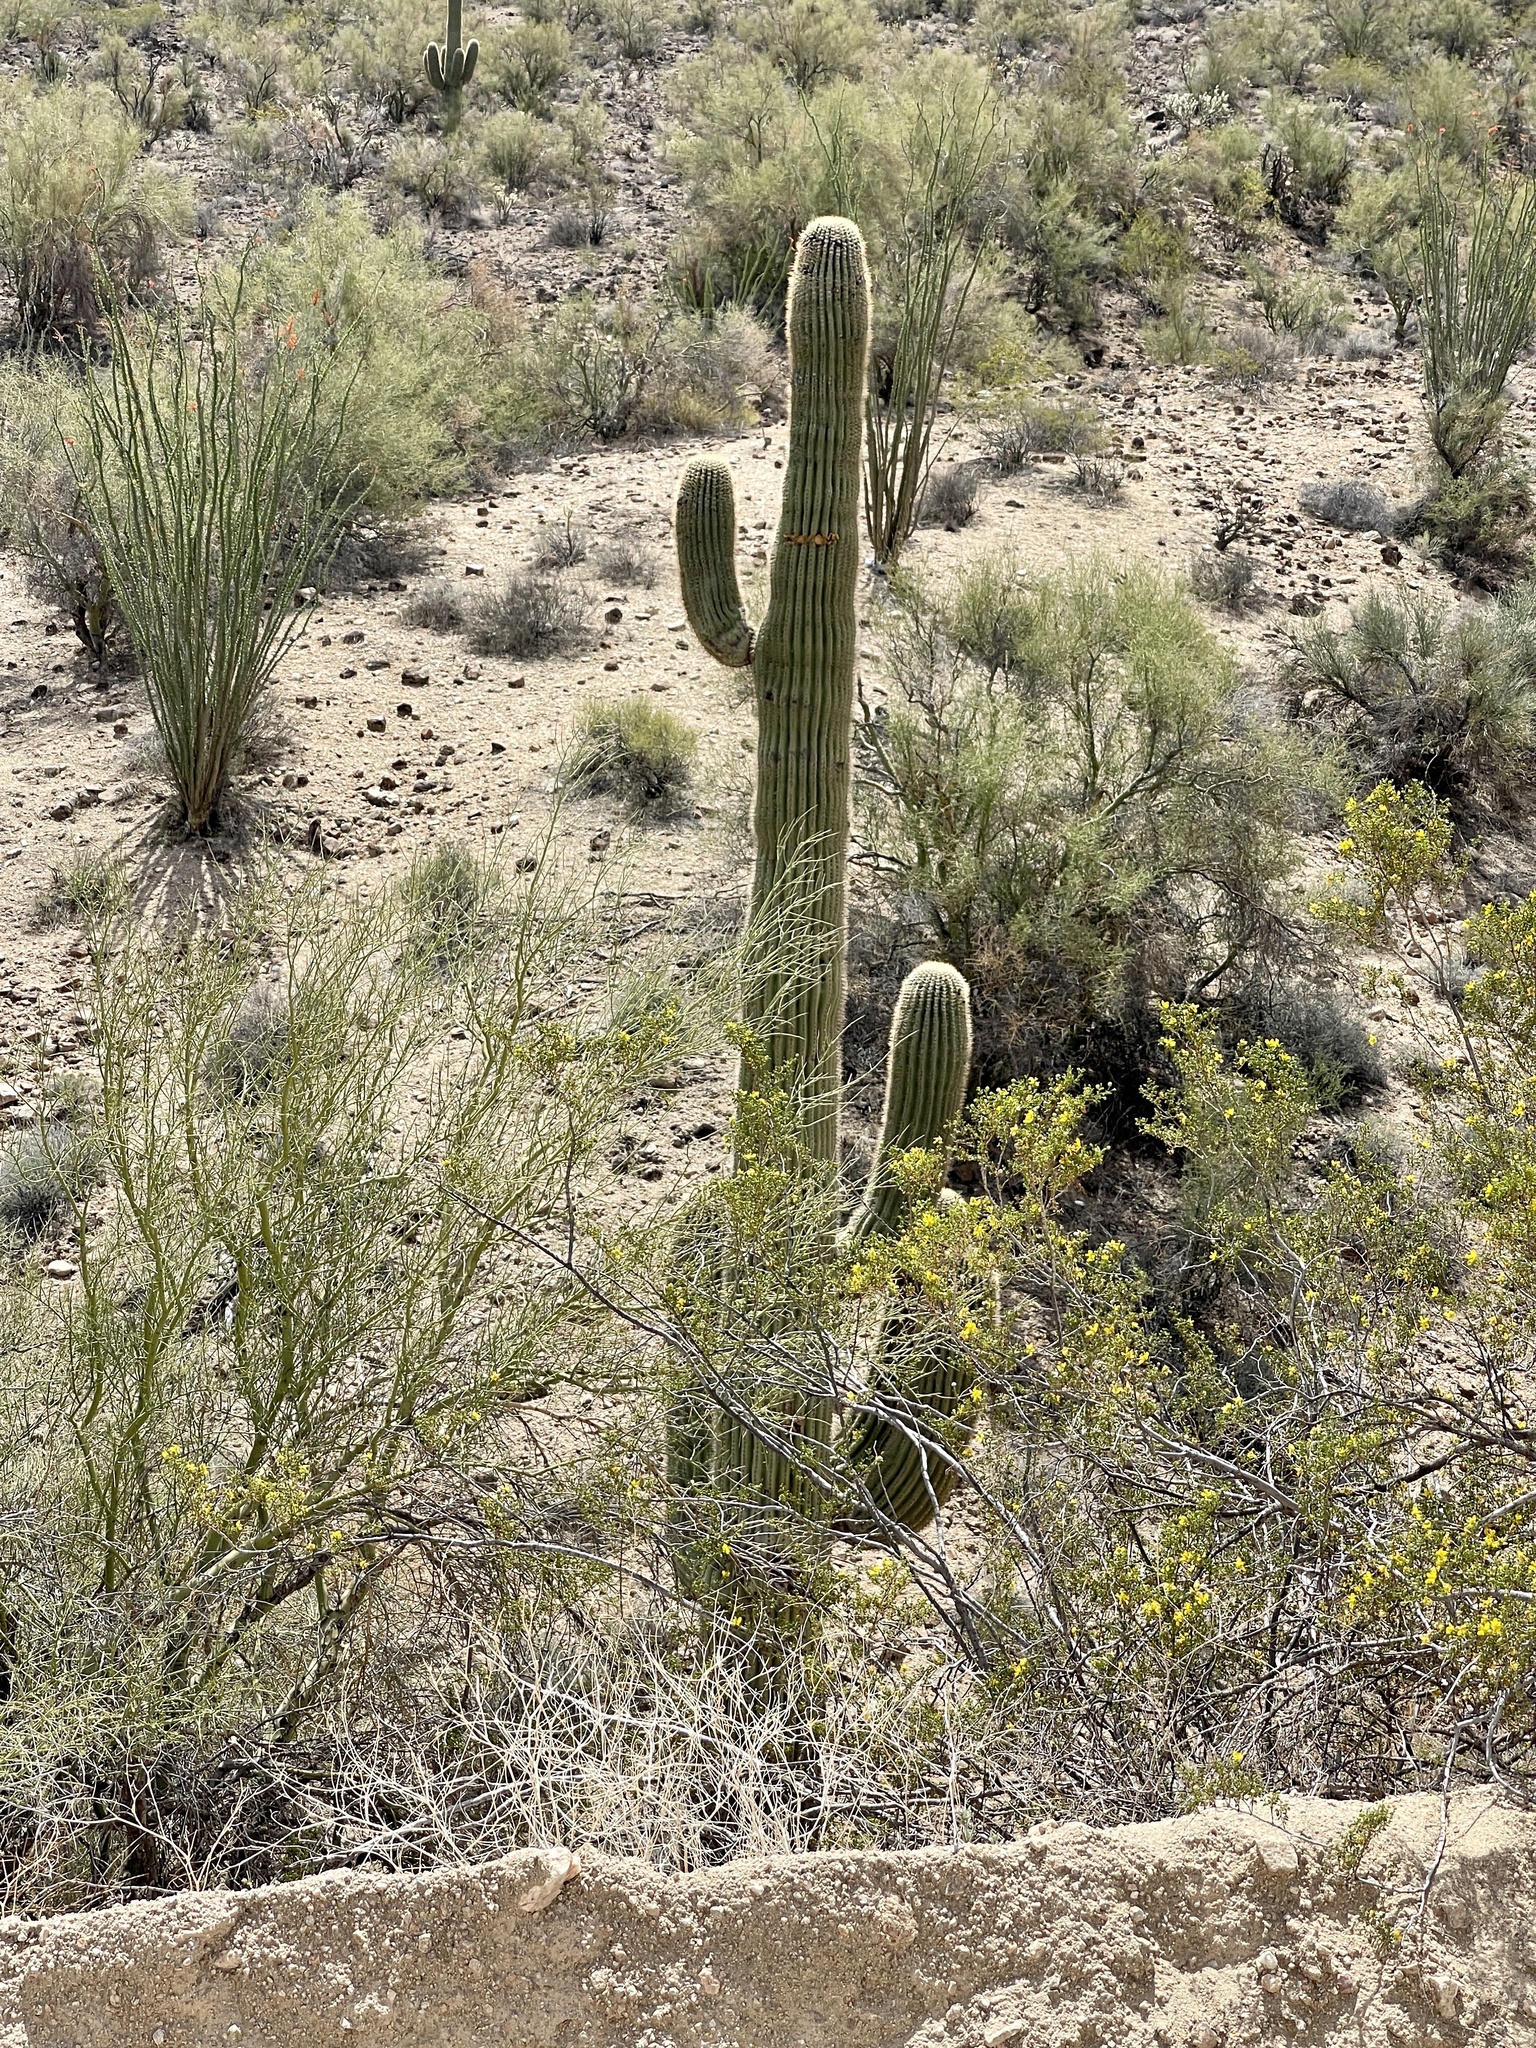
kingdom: Plantae
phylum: Tracheophyta
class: Magnoliopsida
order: Caryophyllales
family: Cactaceae
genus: Carnegiea
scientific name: Carnegiea gigantea
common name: Saguaro
